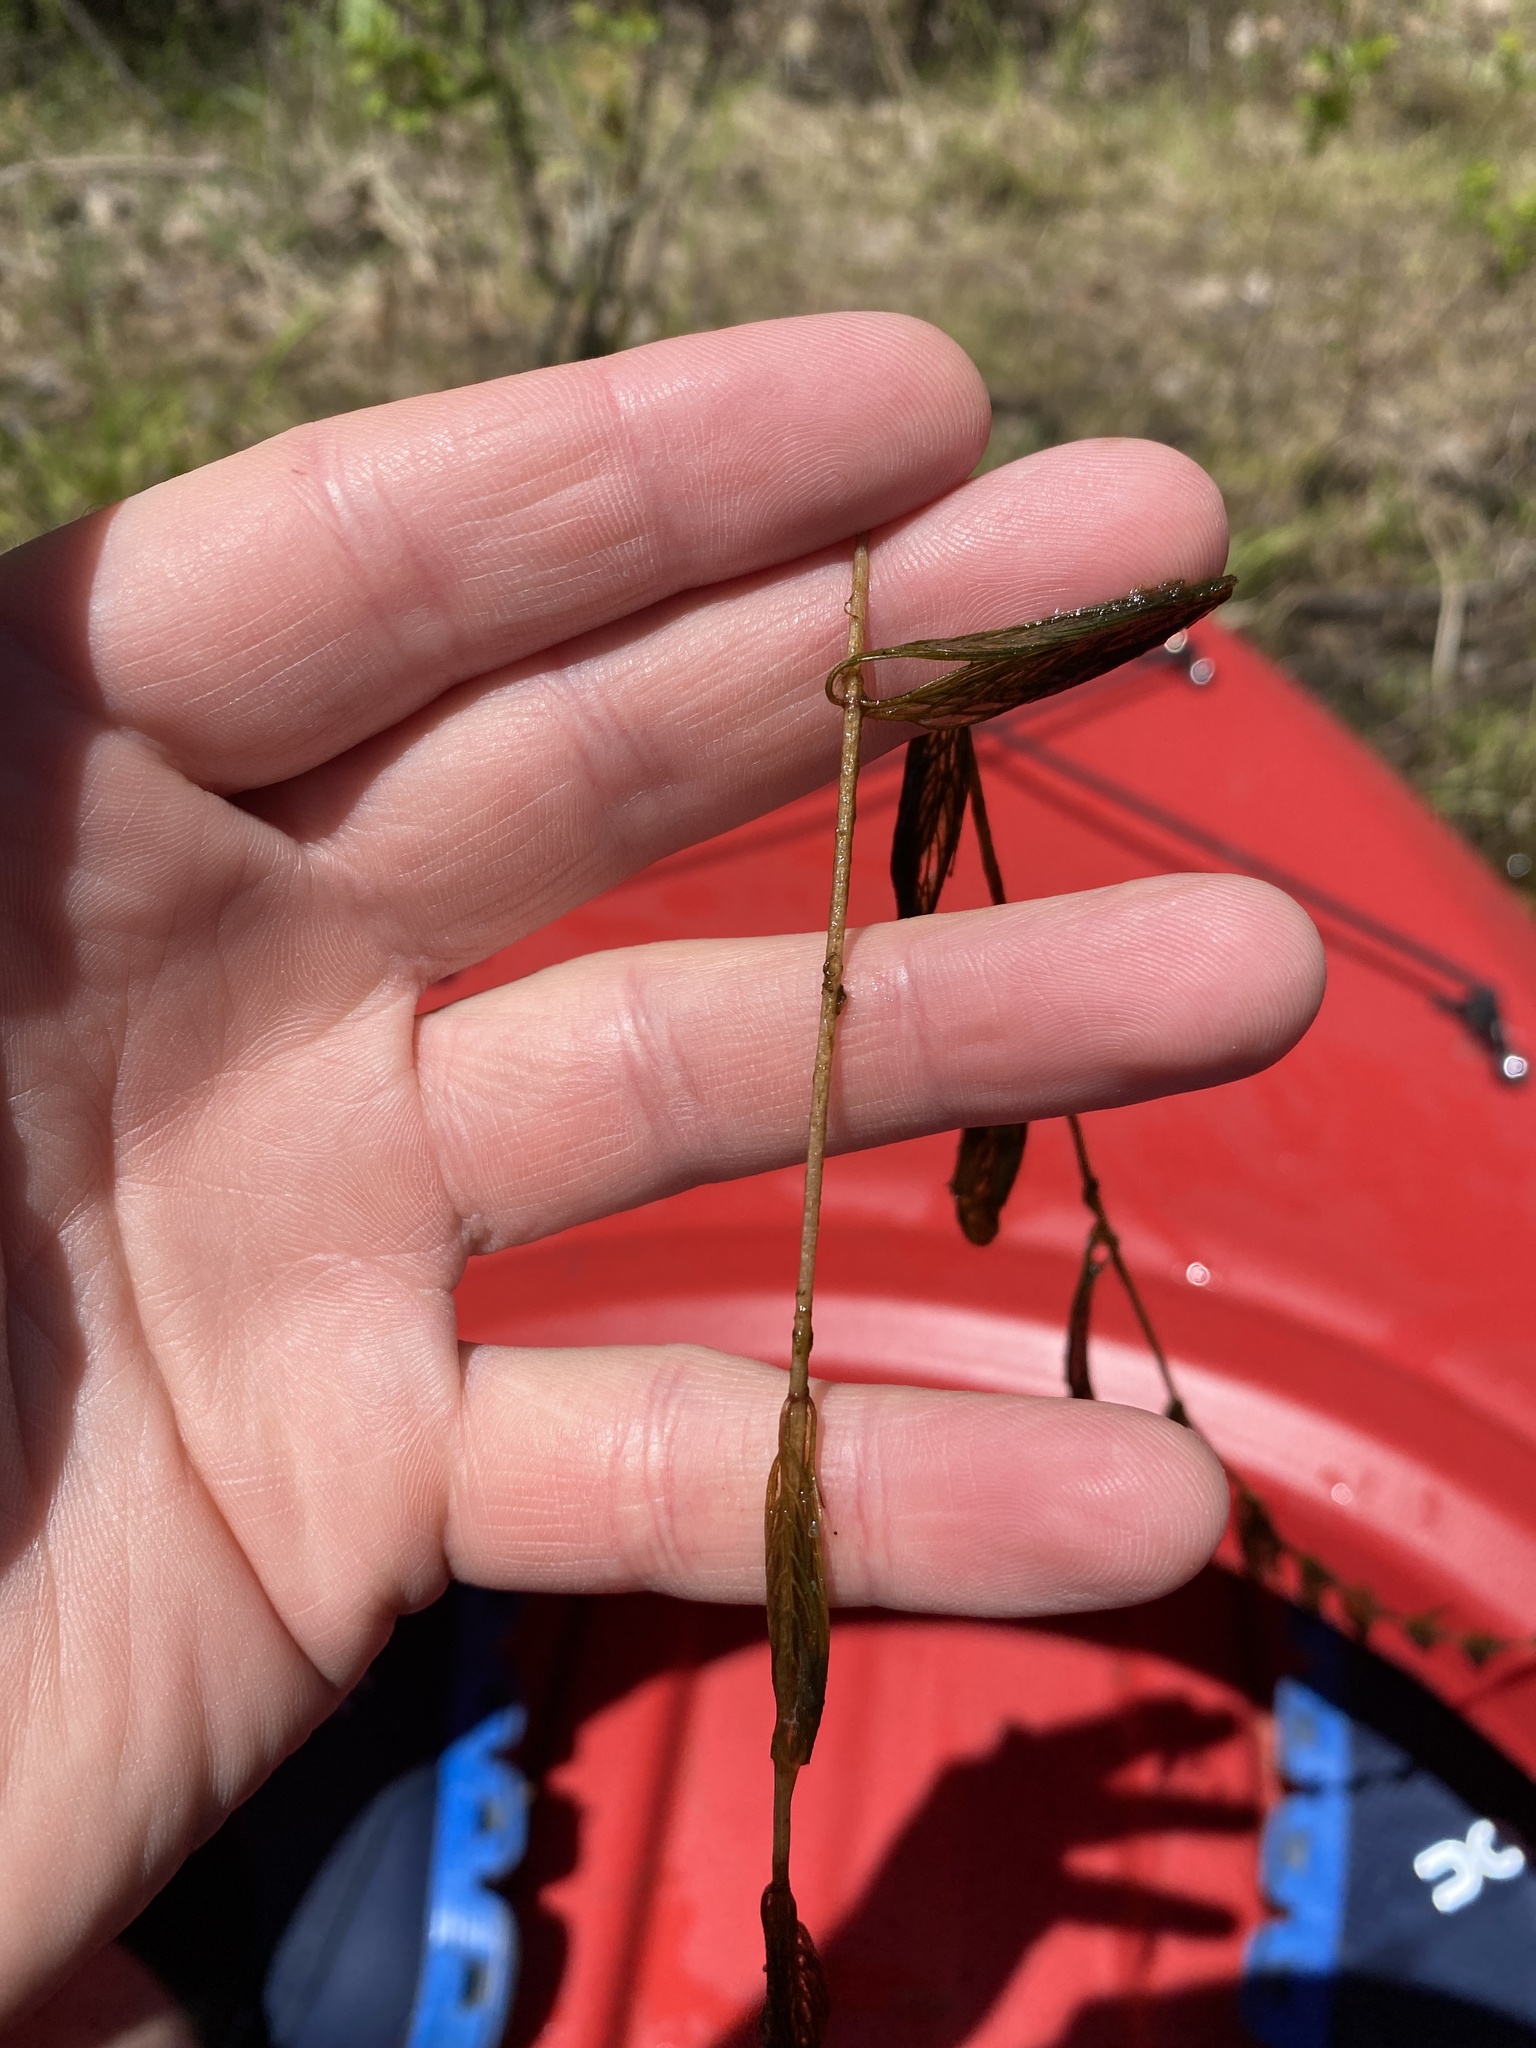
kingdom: Plantae
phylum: Tracheophyta
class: Magnoliopsida
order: Saxifragales
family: Haloragaceae
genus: Myriophyllum
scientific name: Myriophyllum spicatum
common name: Spiked water-milfoil
